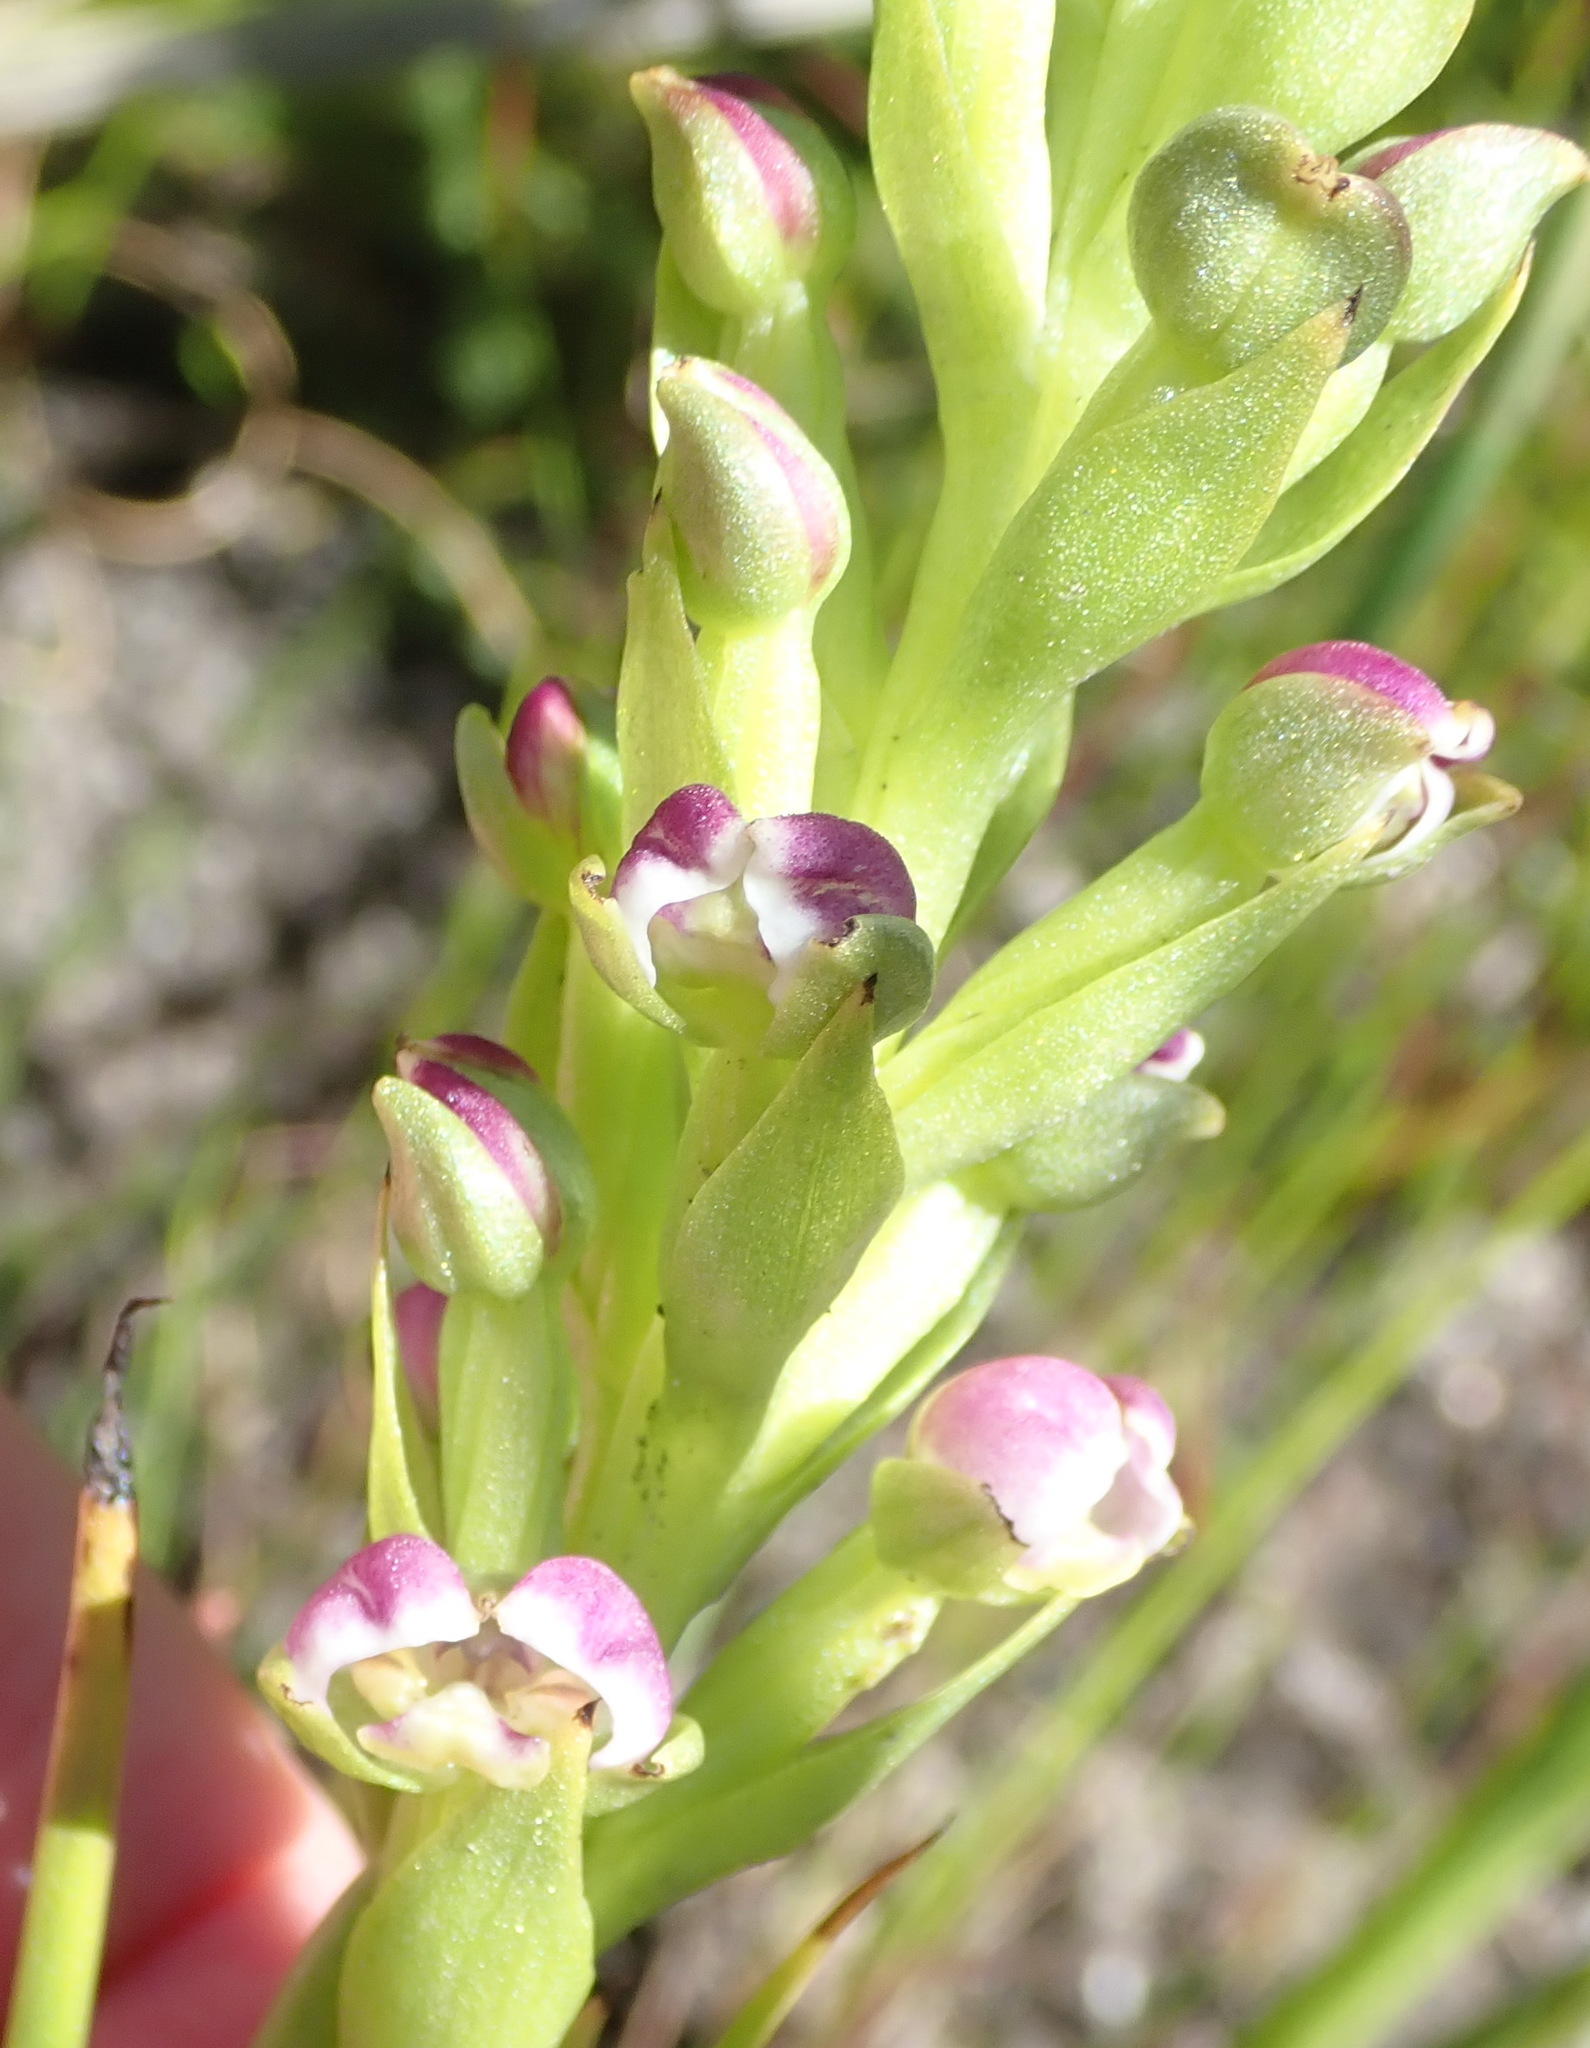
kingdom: Plantae
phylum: Tracheophyta
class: Liliopsida
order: Asparagales
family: Orchidaceae
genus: Evotella
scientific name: Evotella carnosa
